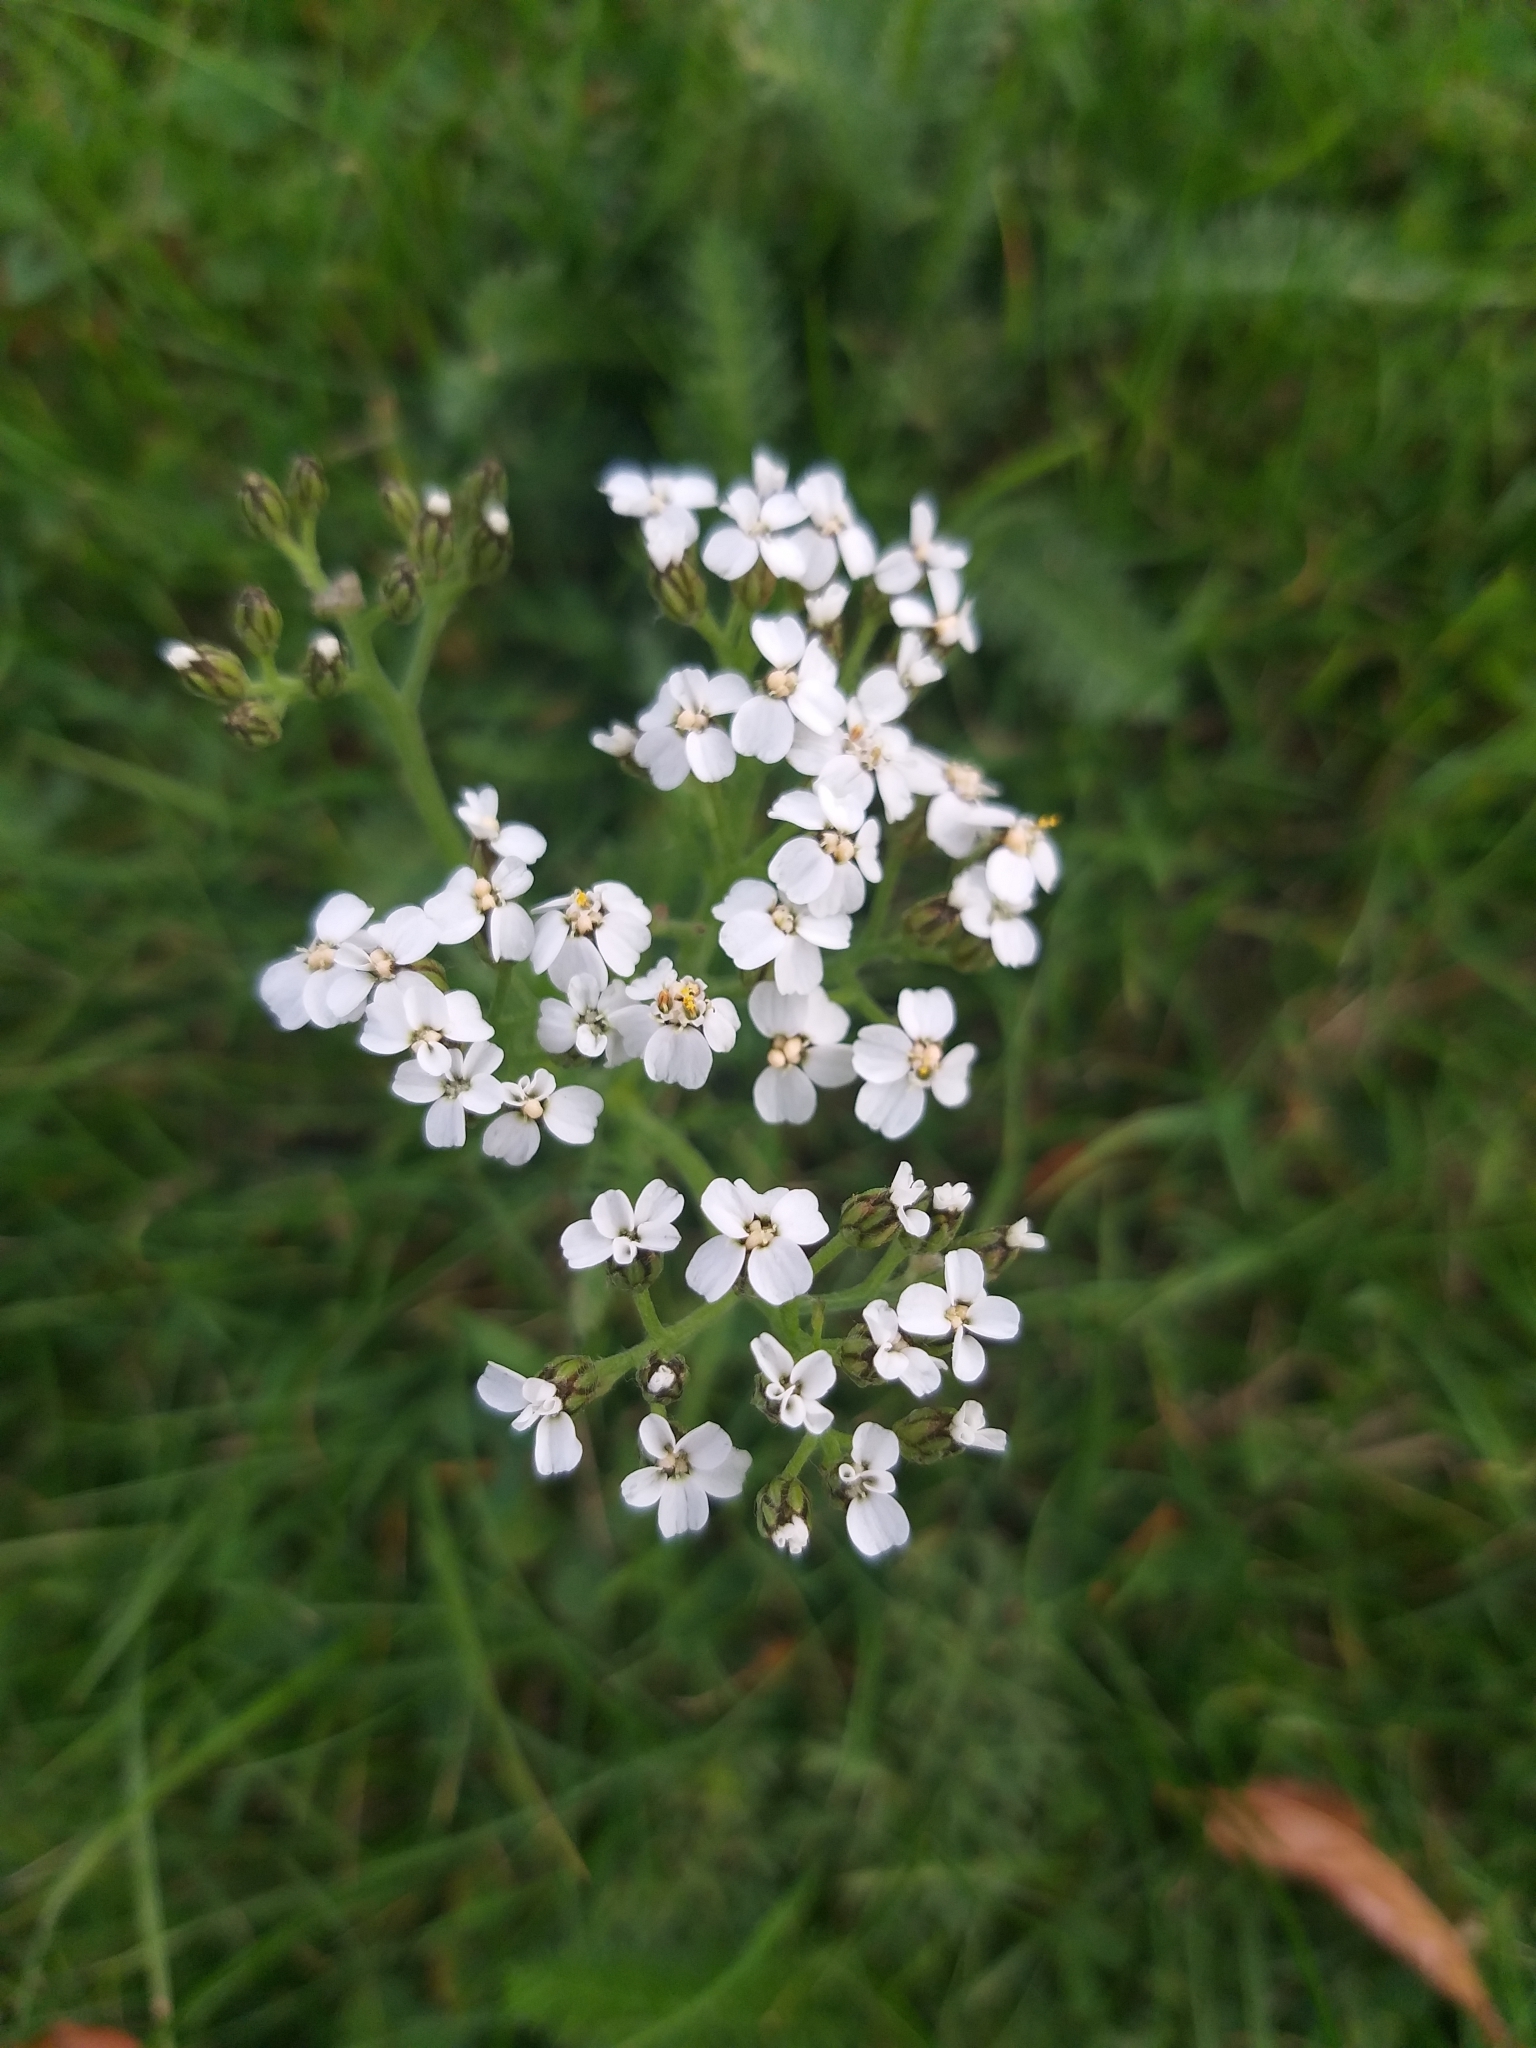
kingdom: Plantae
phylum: Tracheophyta
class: Magnoliopsida
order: Asterales
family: Asteraceae
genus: Achillea
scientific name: Achillea millefolium
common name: Yarrow
